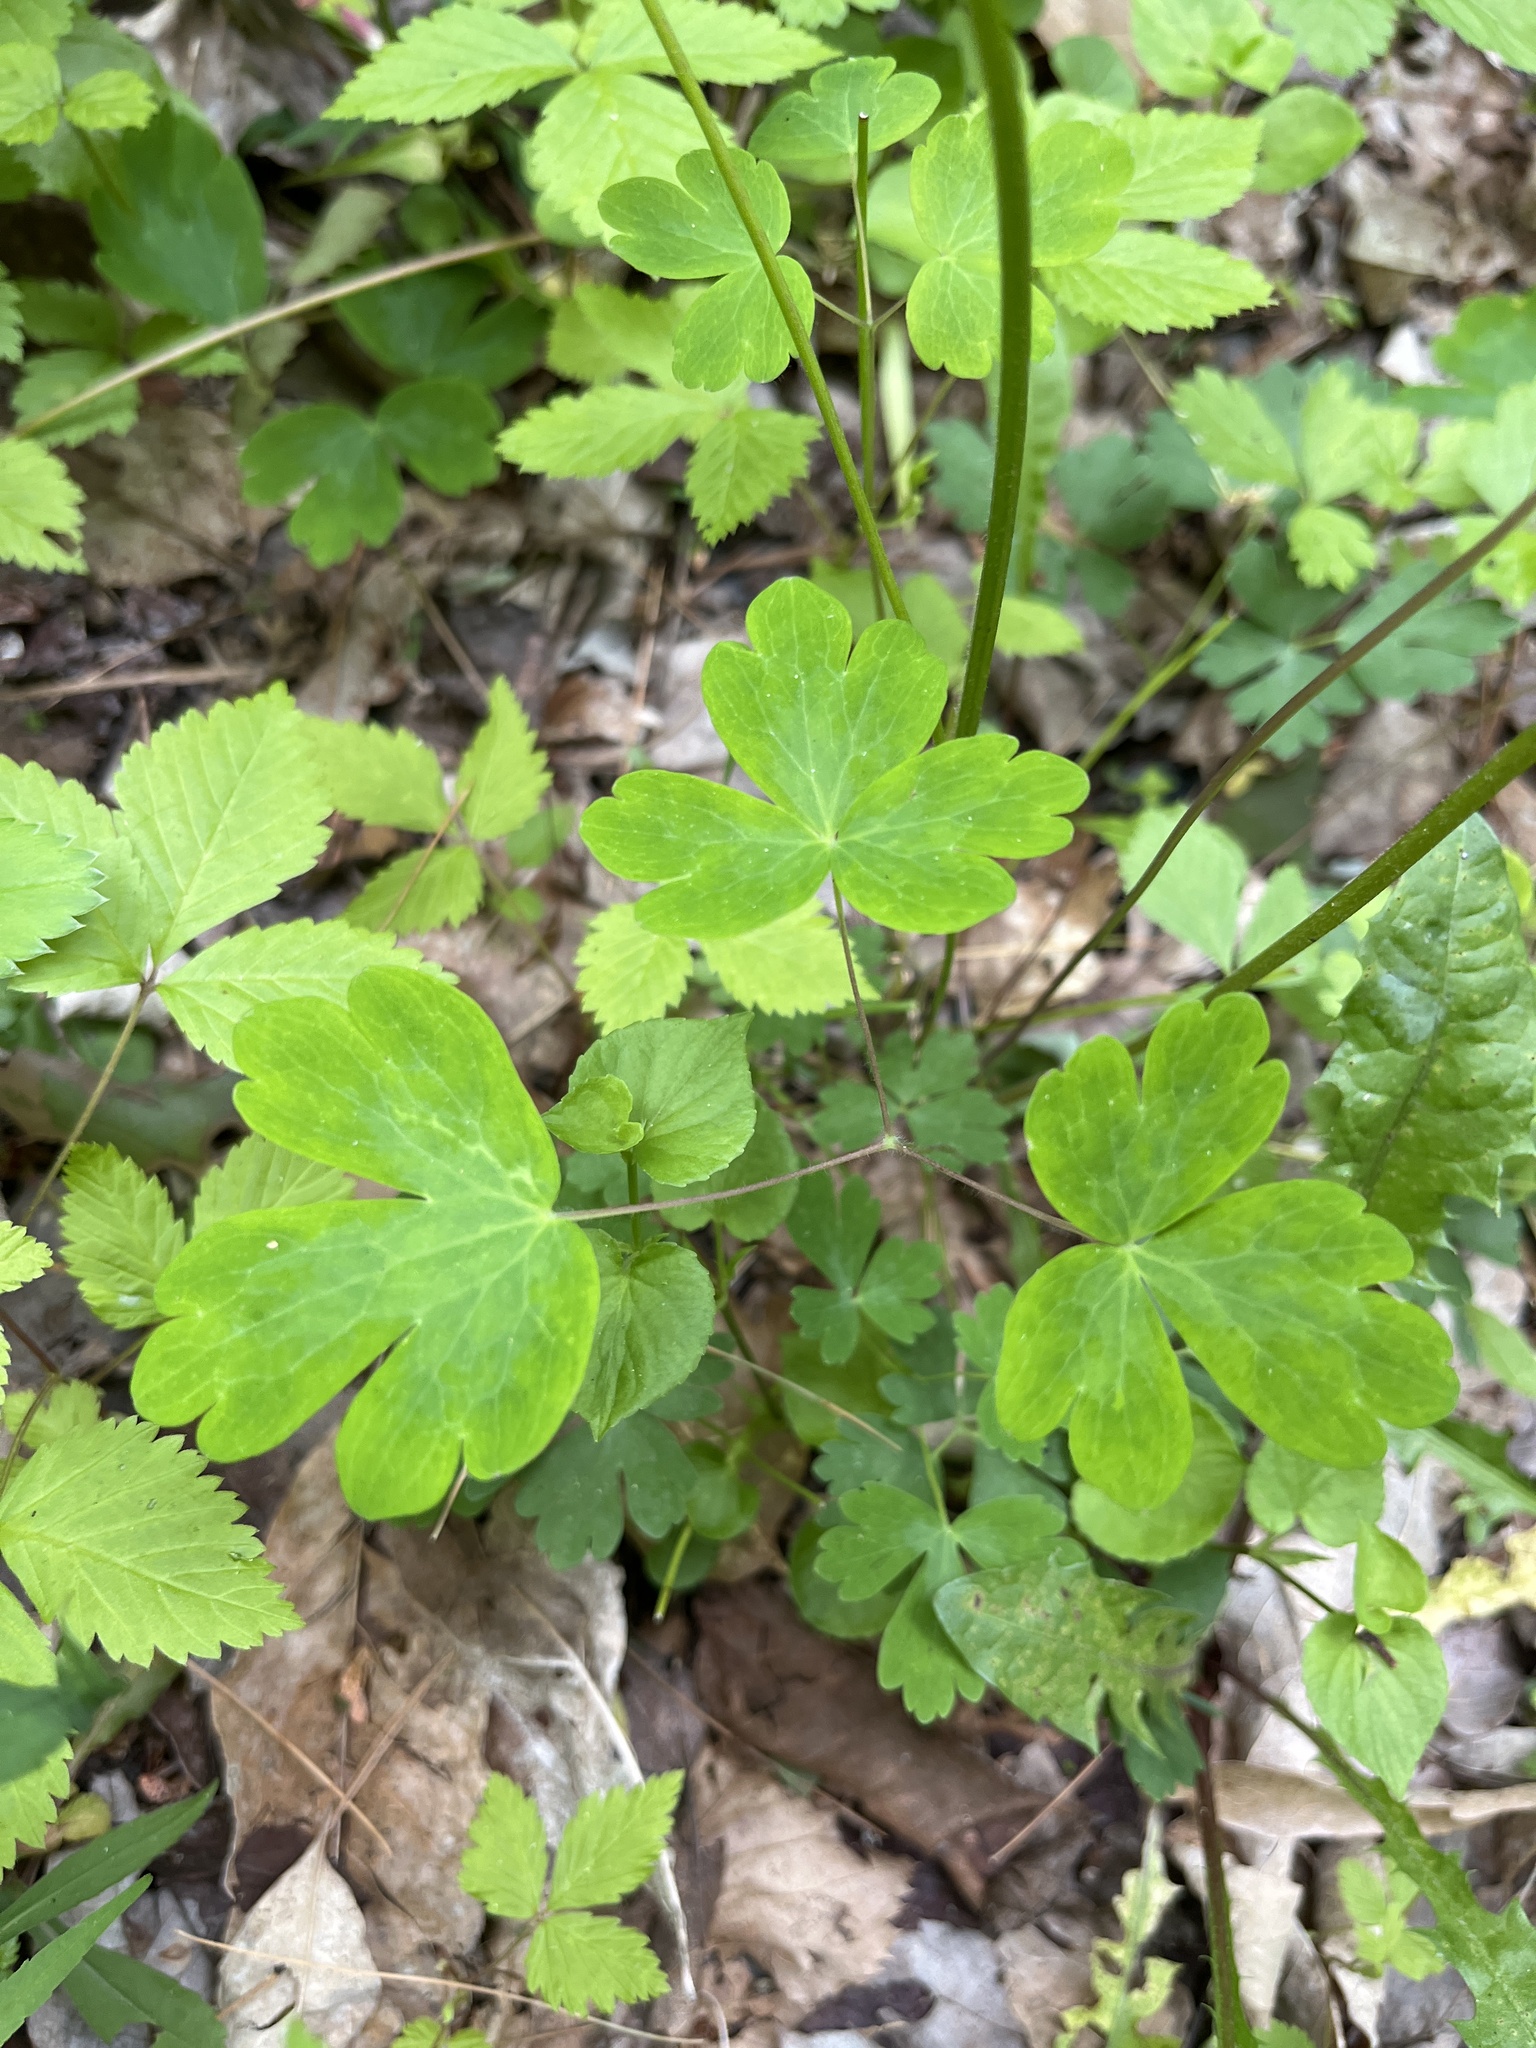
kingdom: Plantae
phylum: Tracheophyta
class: Magnoliopsida
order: Ranunculales
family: Ranunculaceae
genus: Aquilegia
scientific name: Aquilegia canadensis
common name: American columbine
